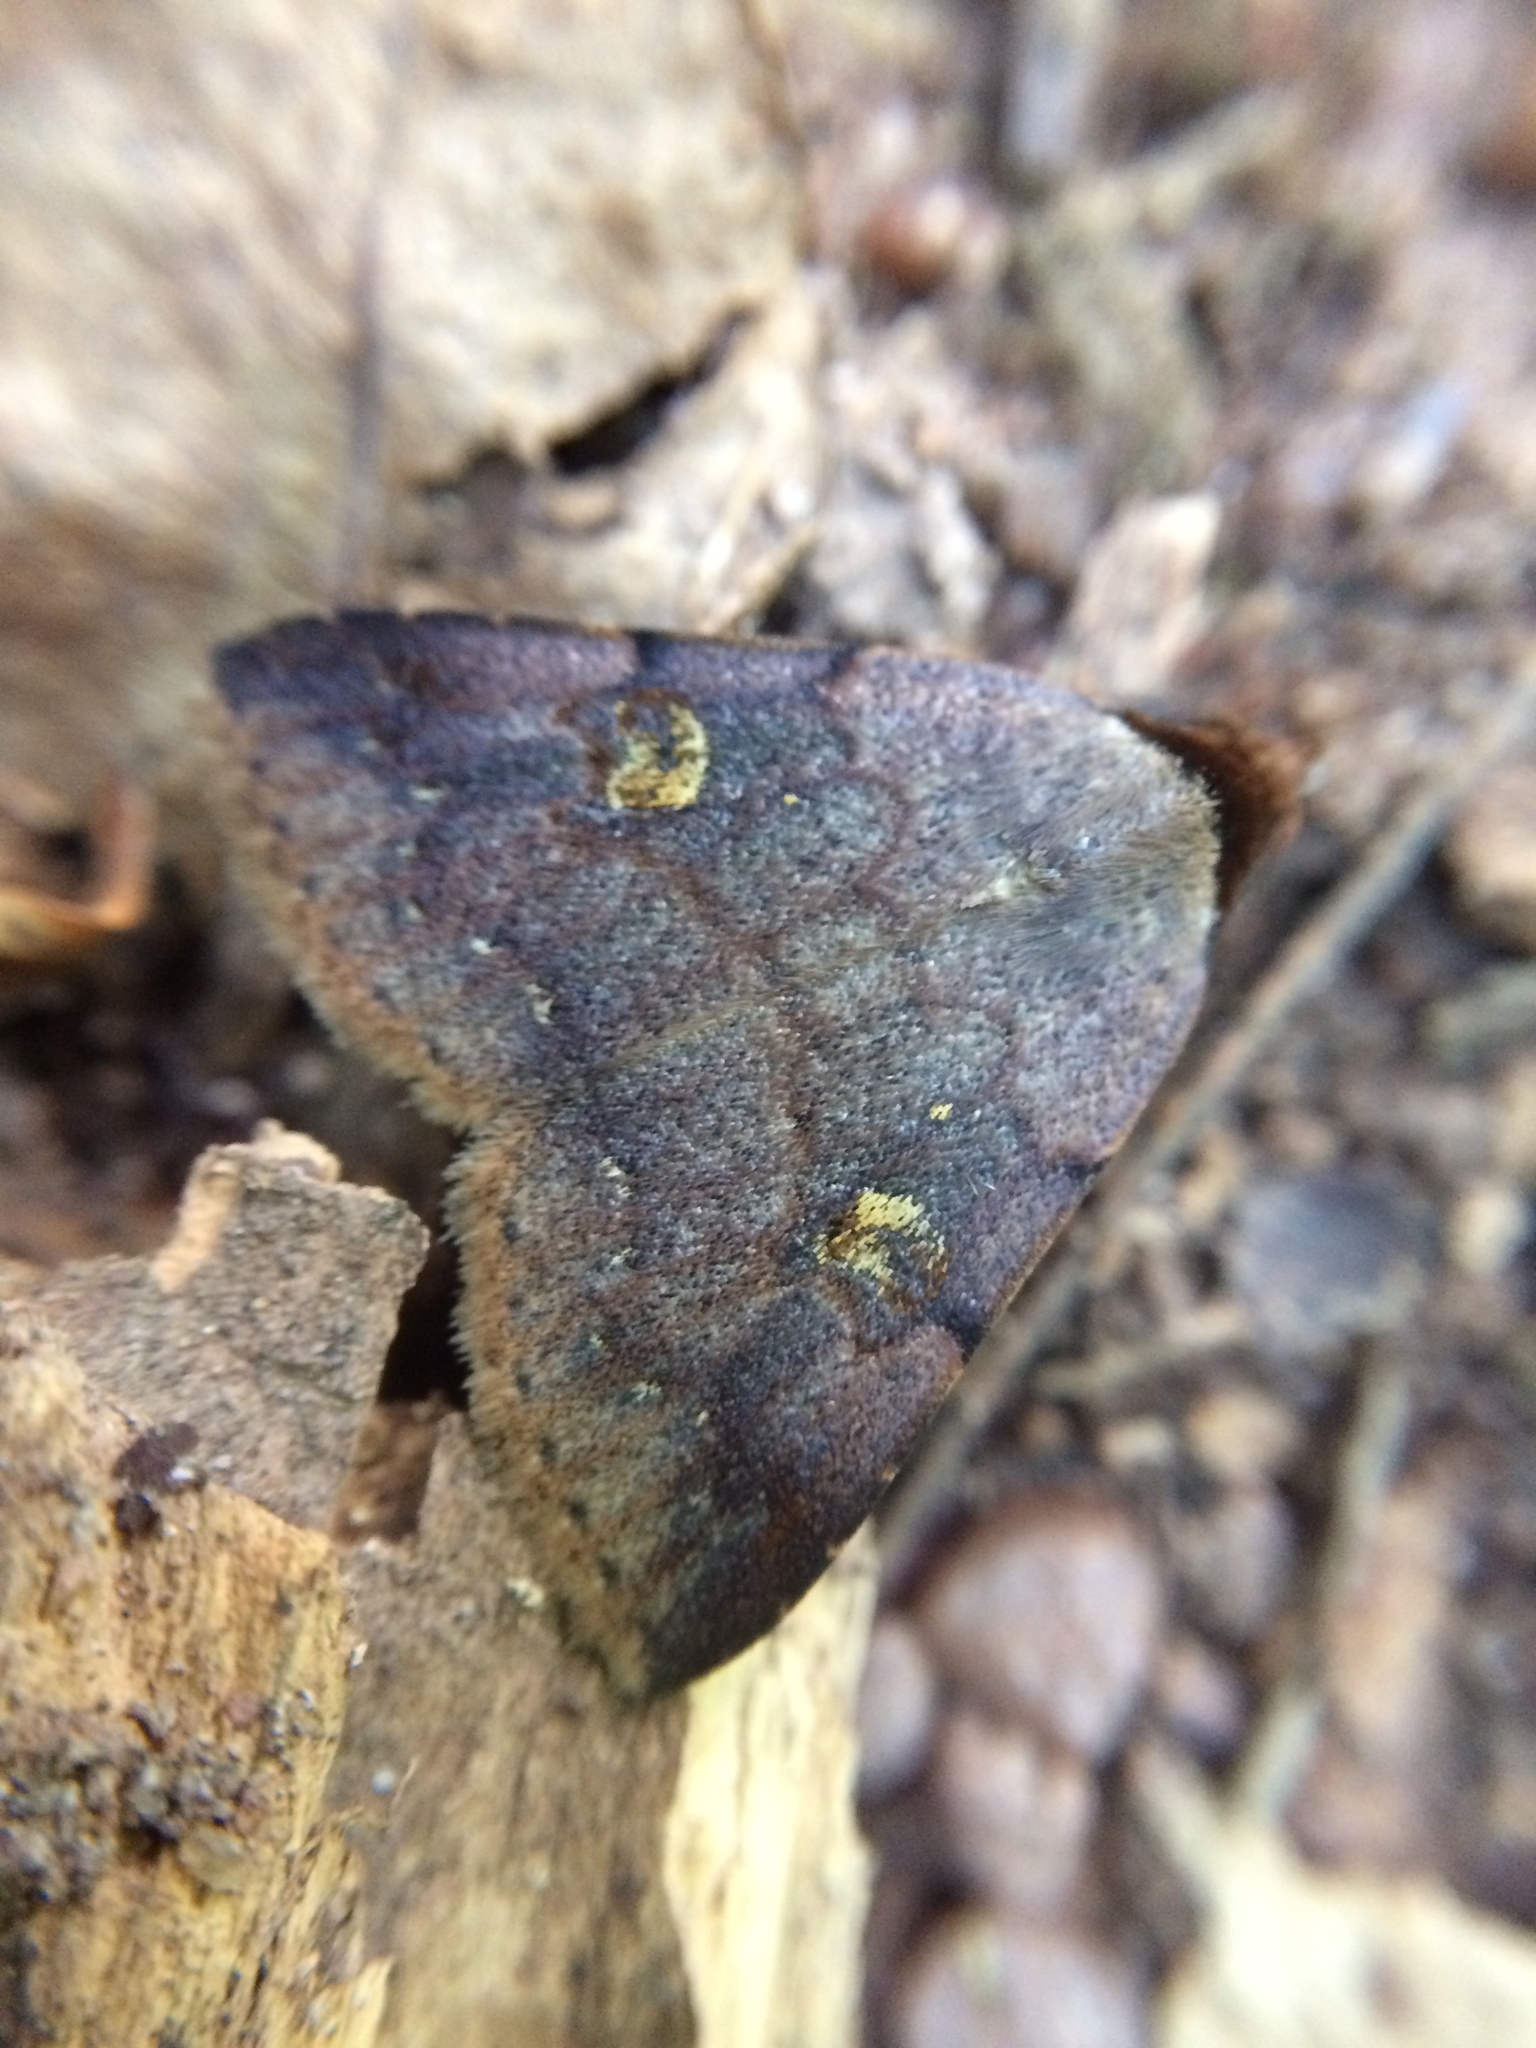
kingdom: Animalia
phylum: Arthropoda
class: Insecta
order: Lepidoptera
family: Erebidae
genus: Plecoptera
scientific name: Plecoptera punctilineata
